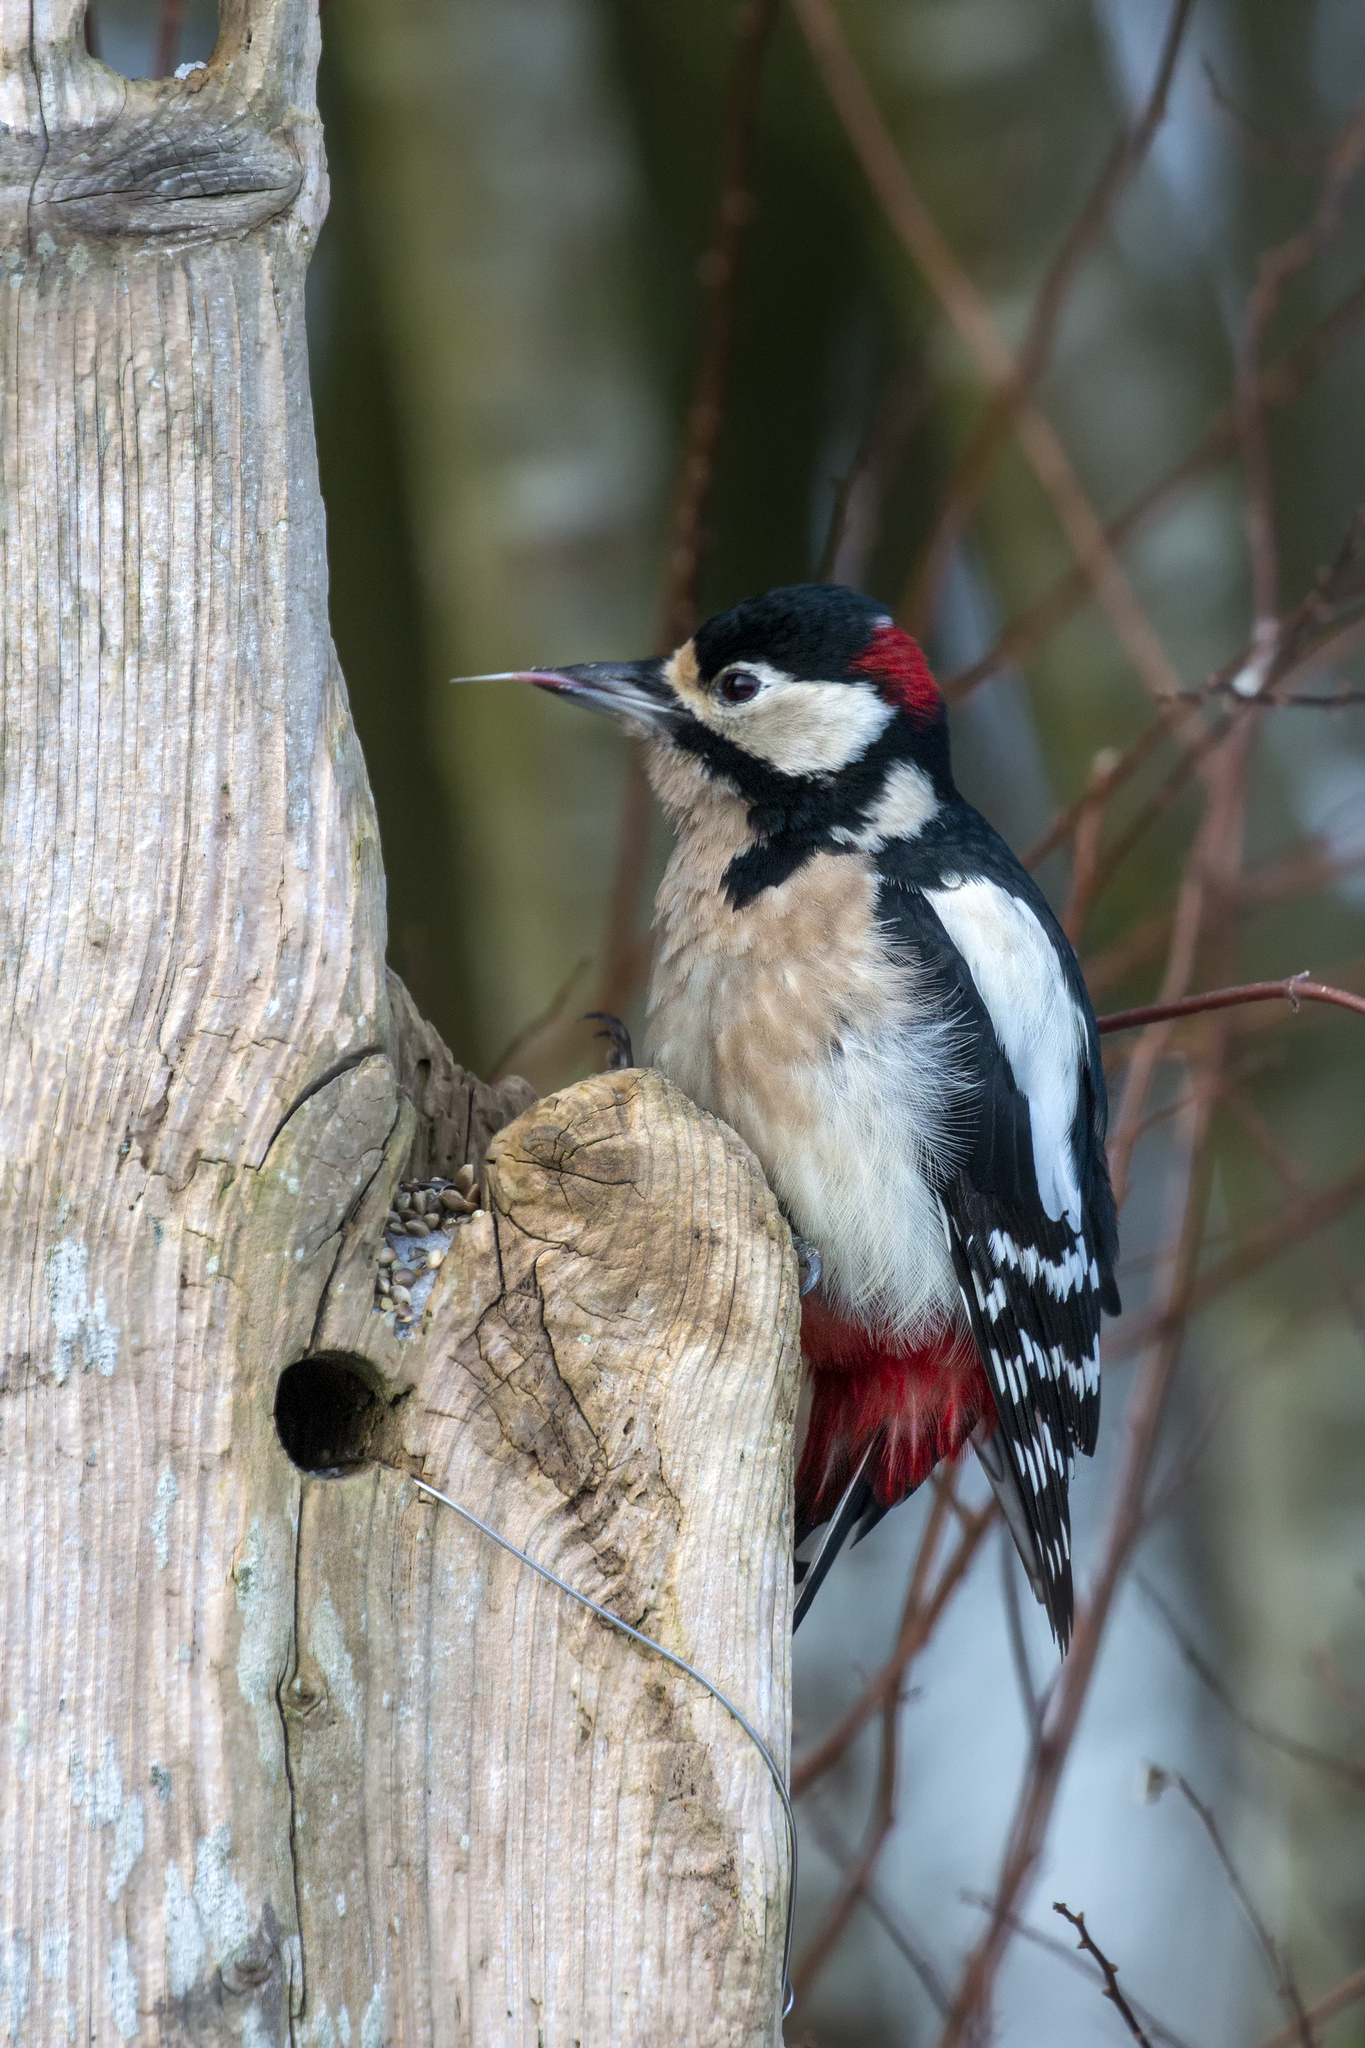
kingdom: Animalia
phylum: Chordata
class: Aves
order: Piciformes
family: Picidae
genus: Dendrocopos
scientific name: Dendrocopos major
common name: Great spotted woodpecker
